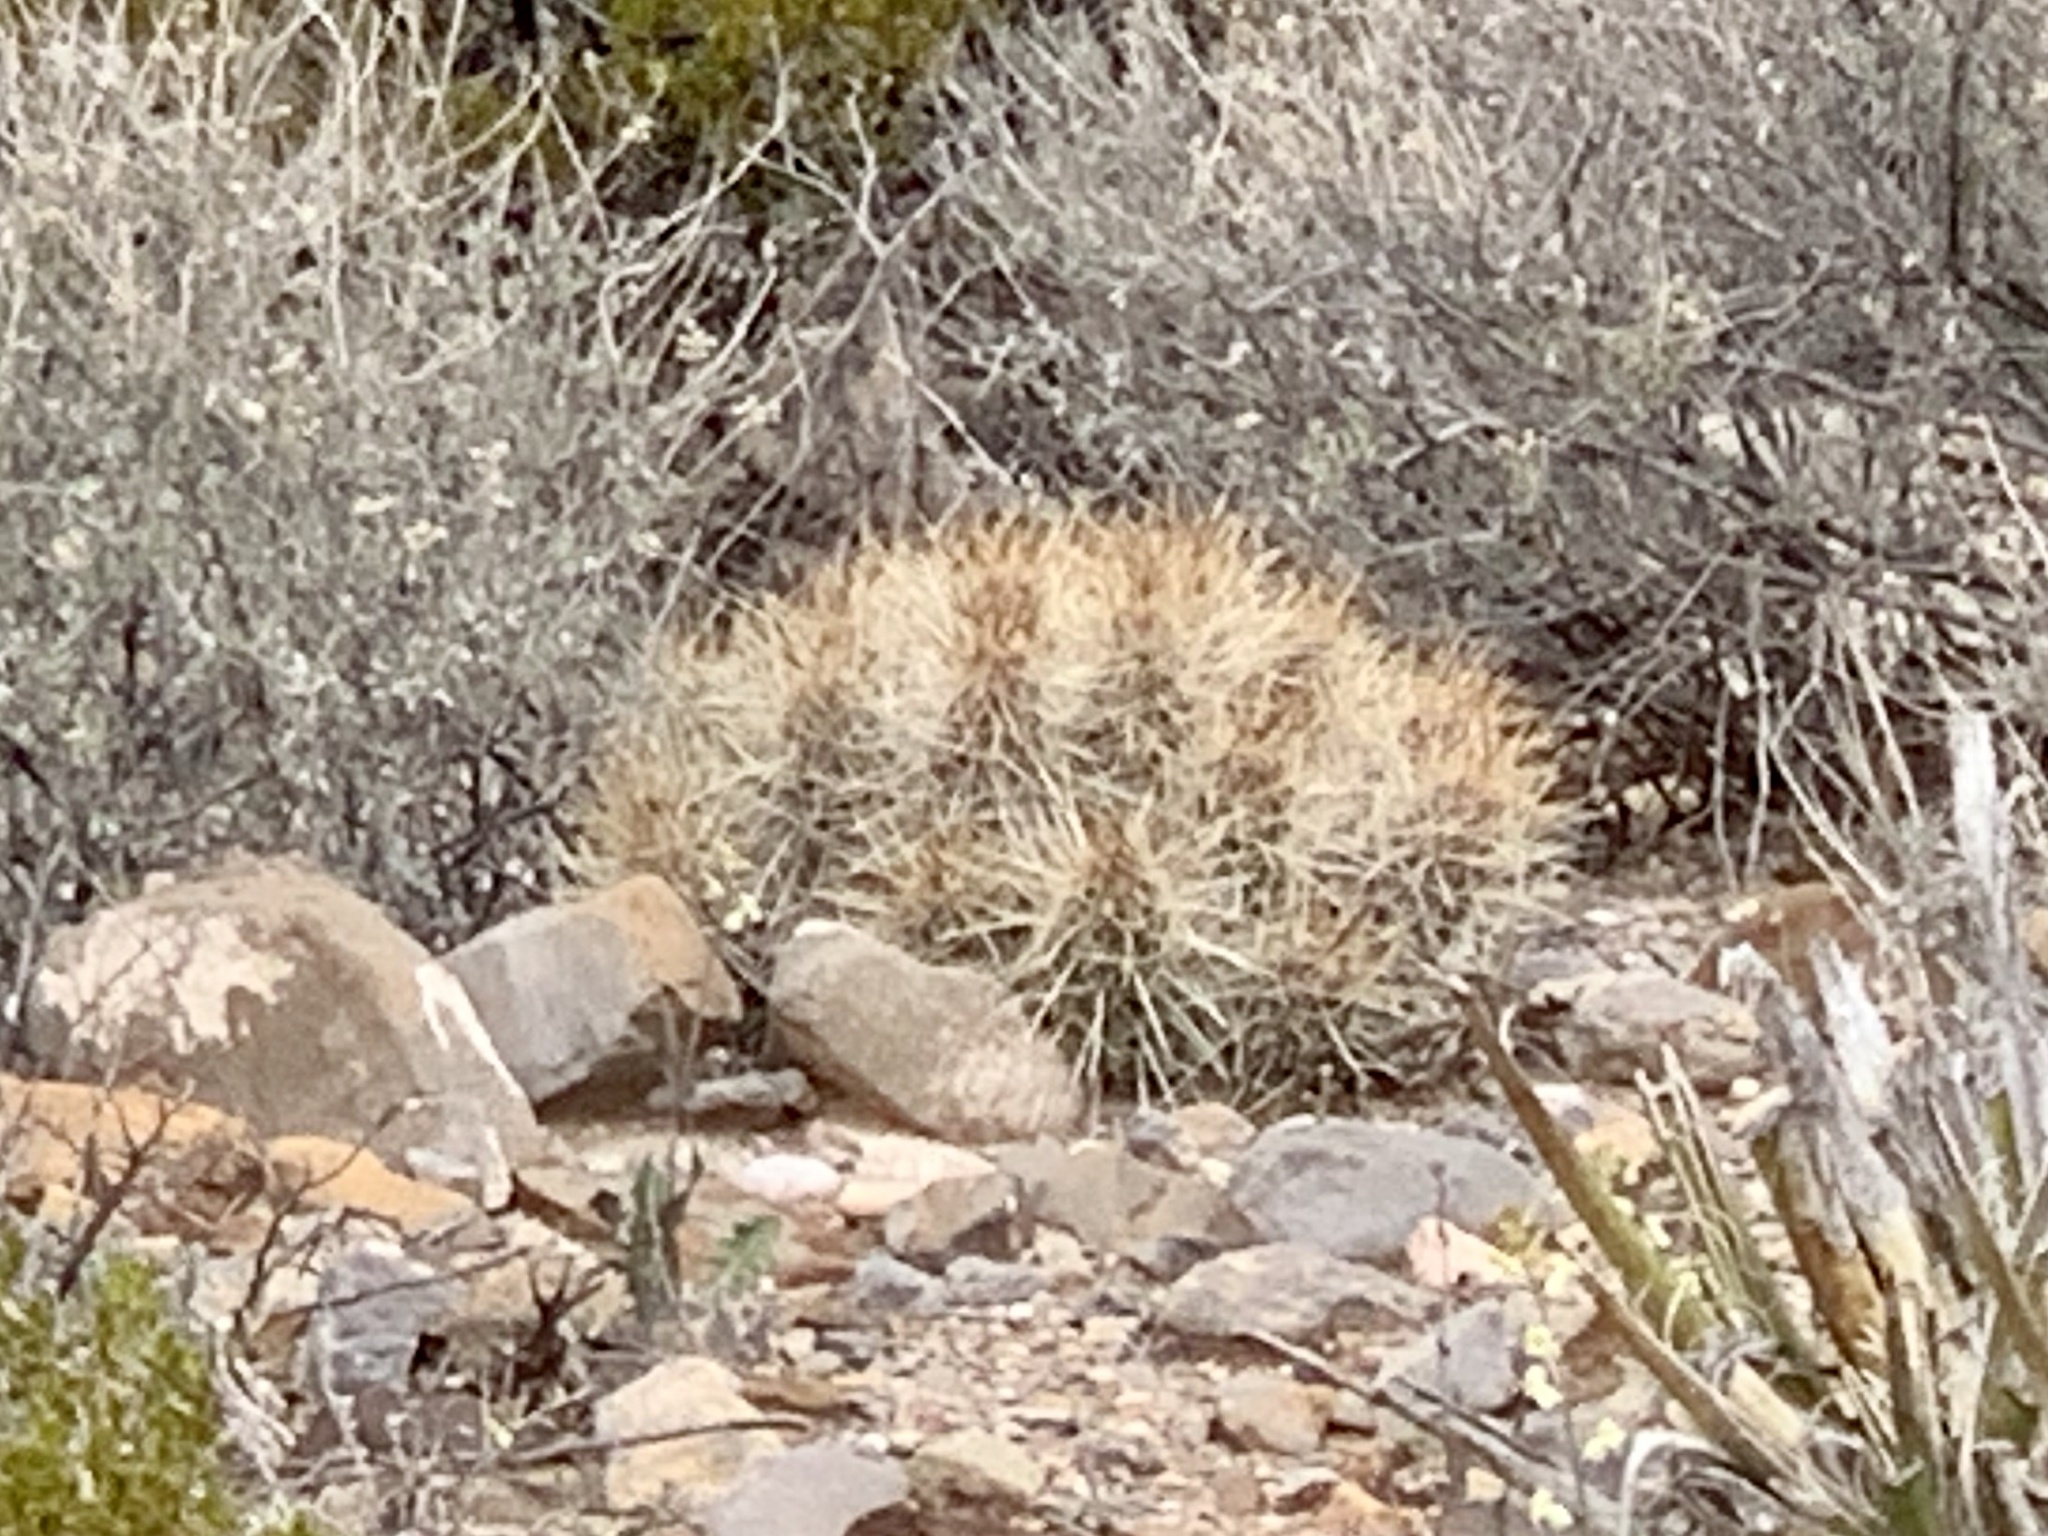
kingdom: Plantae
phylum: Tracheophyta
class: Magnoliopsida
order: Caryophyllales
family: Cactaceae
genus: Echinocereus
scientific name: Echinocereus stramineus
